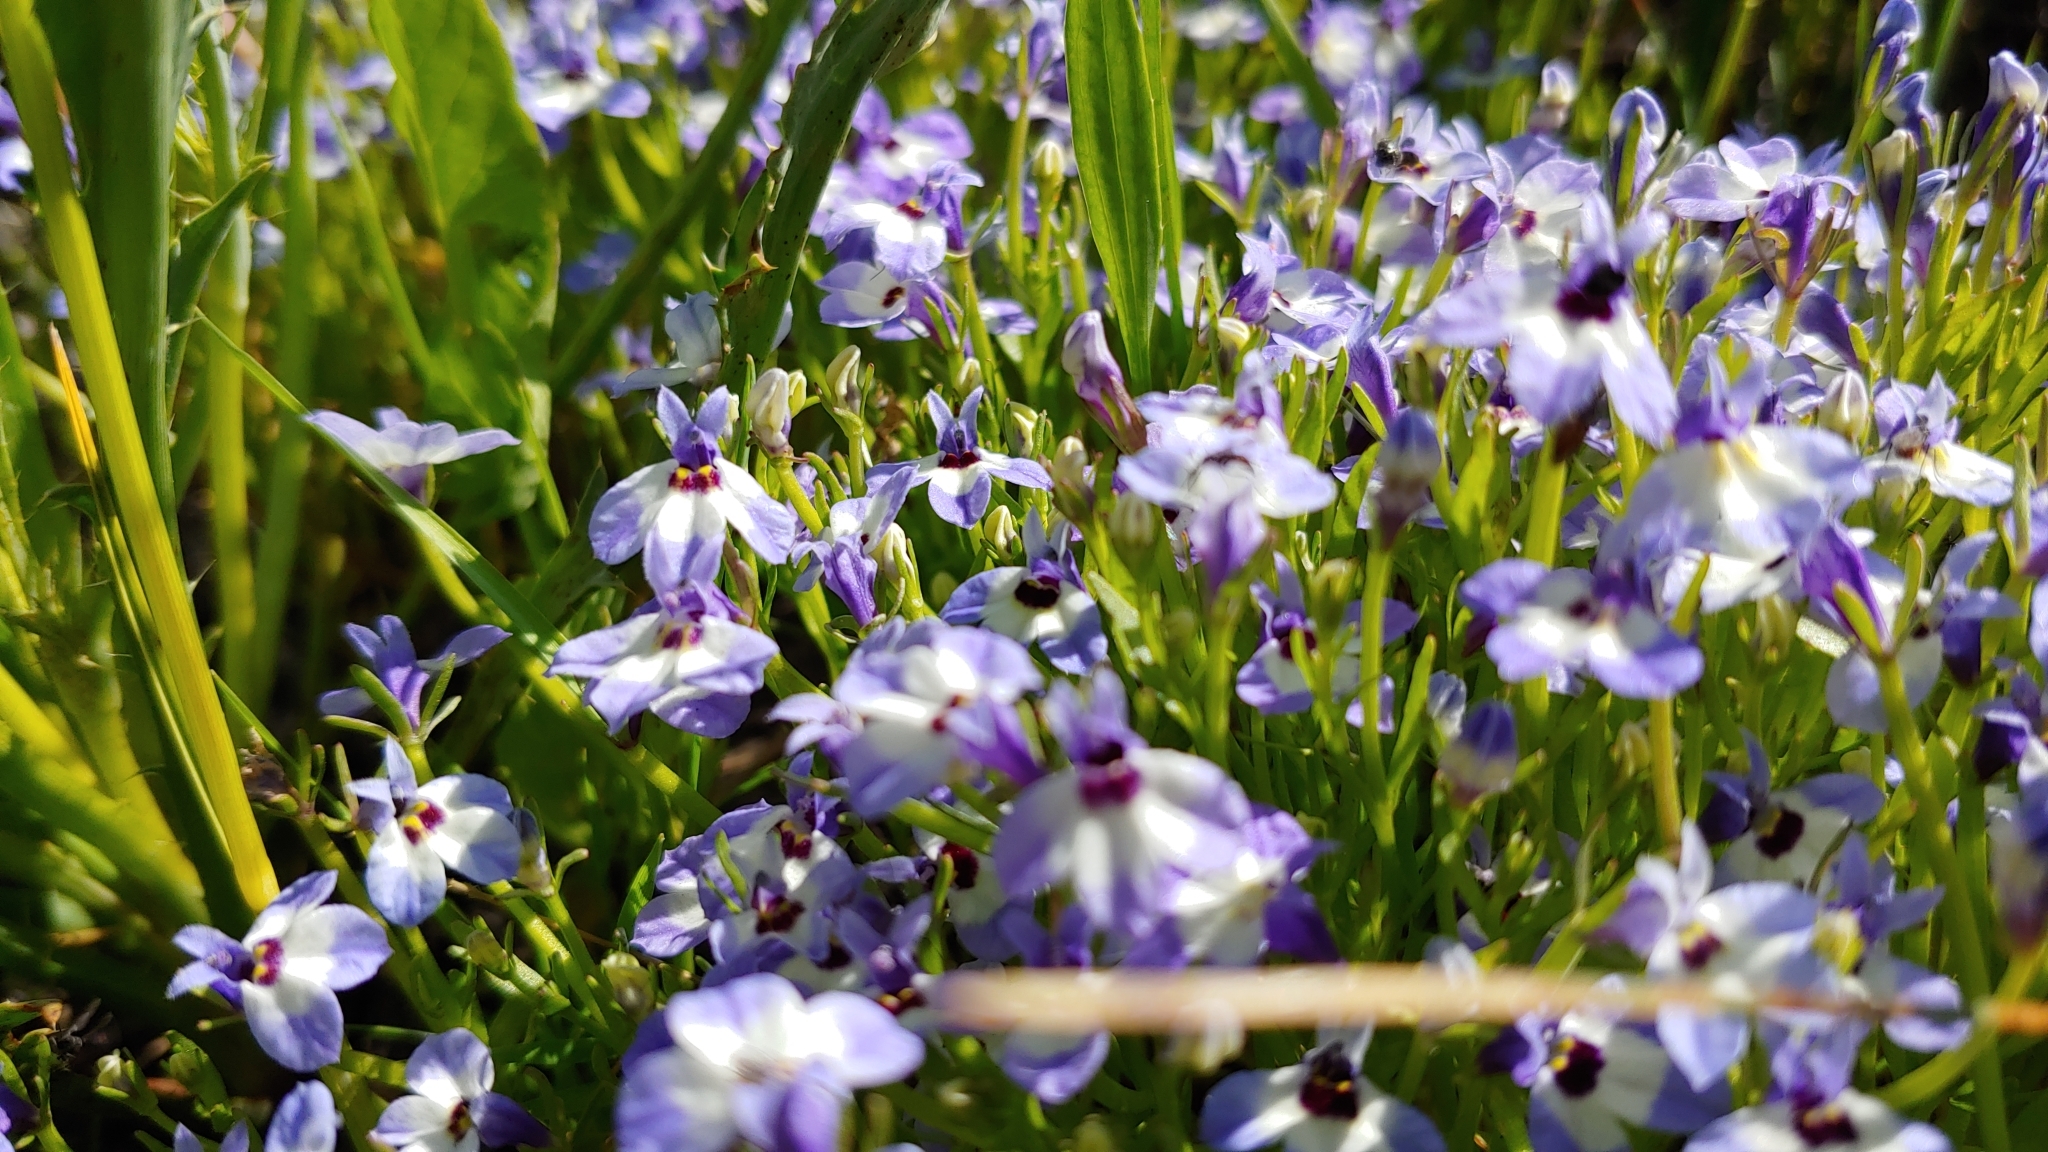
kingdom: Plantae
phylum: Tracheophyta
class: Magnoliopsida
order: Asterales
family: Campanulaceae
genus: Downingia
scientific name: Downingia concolor
